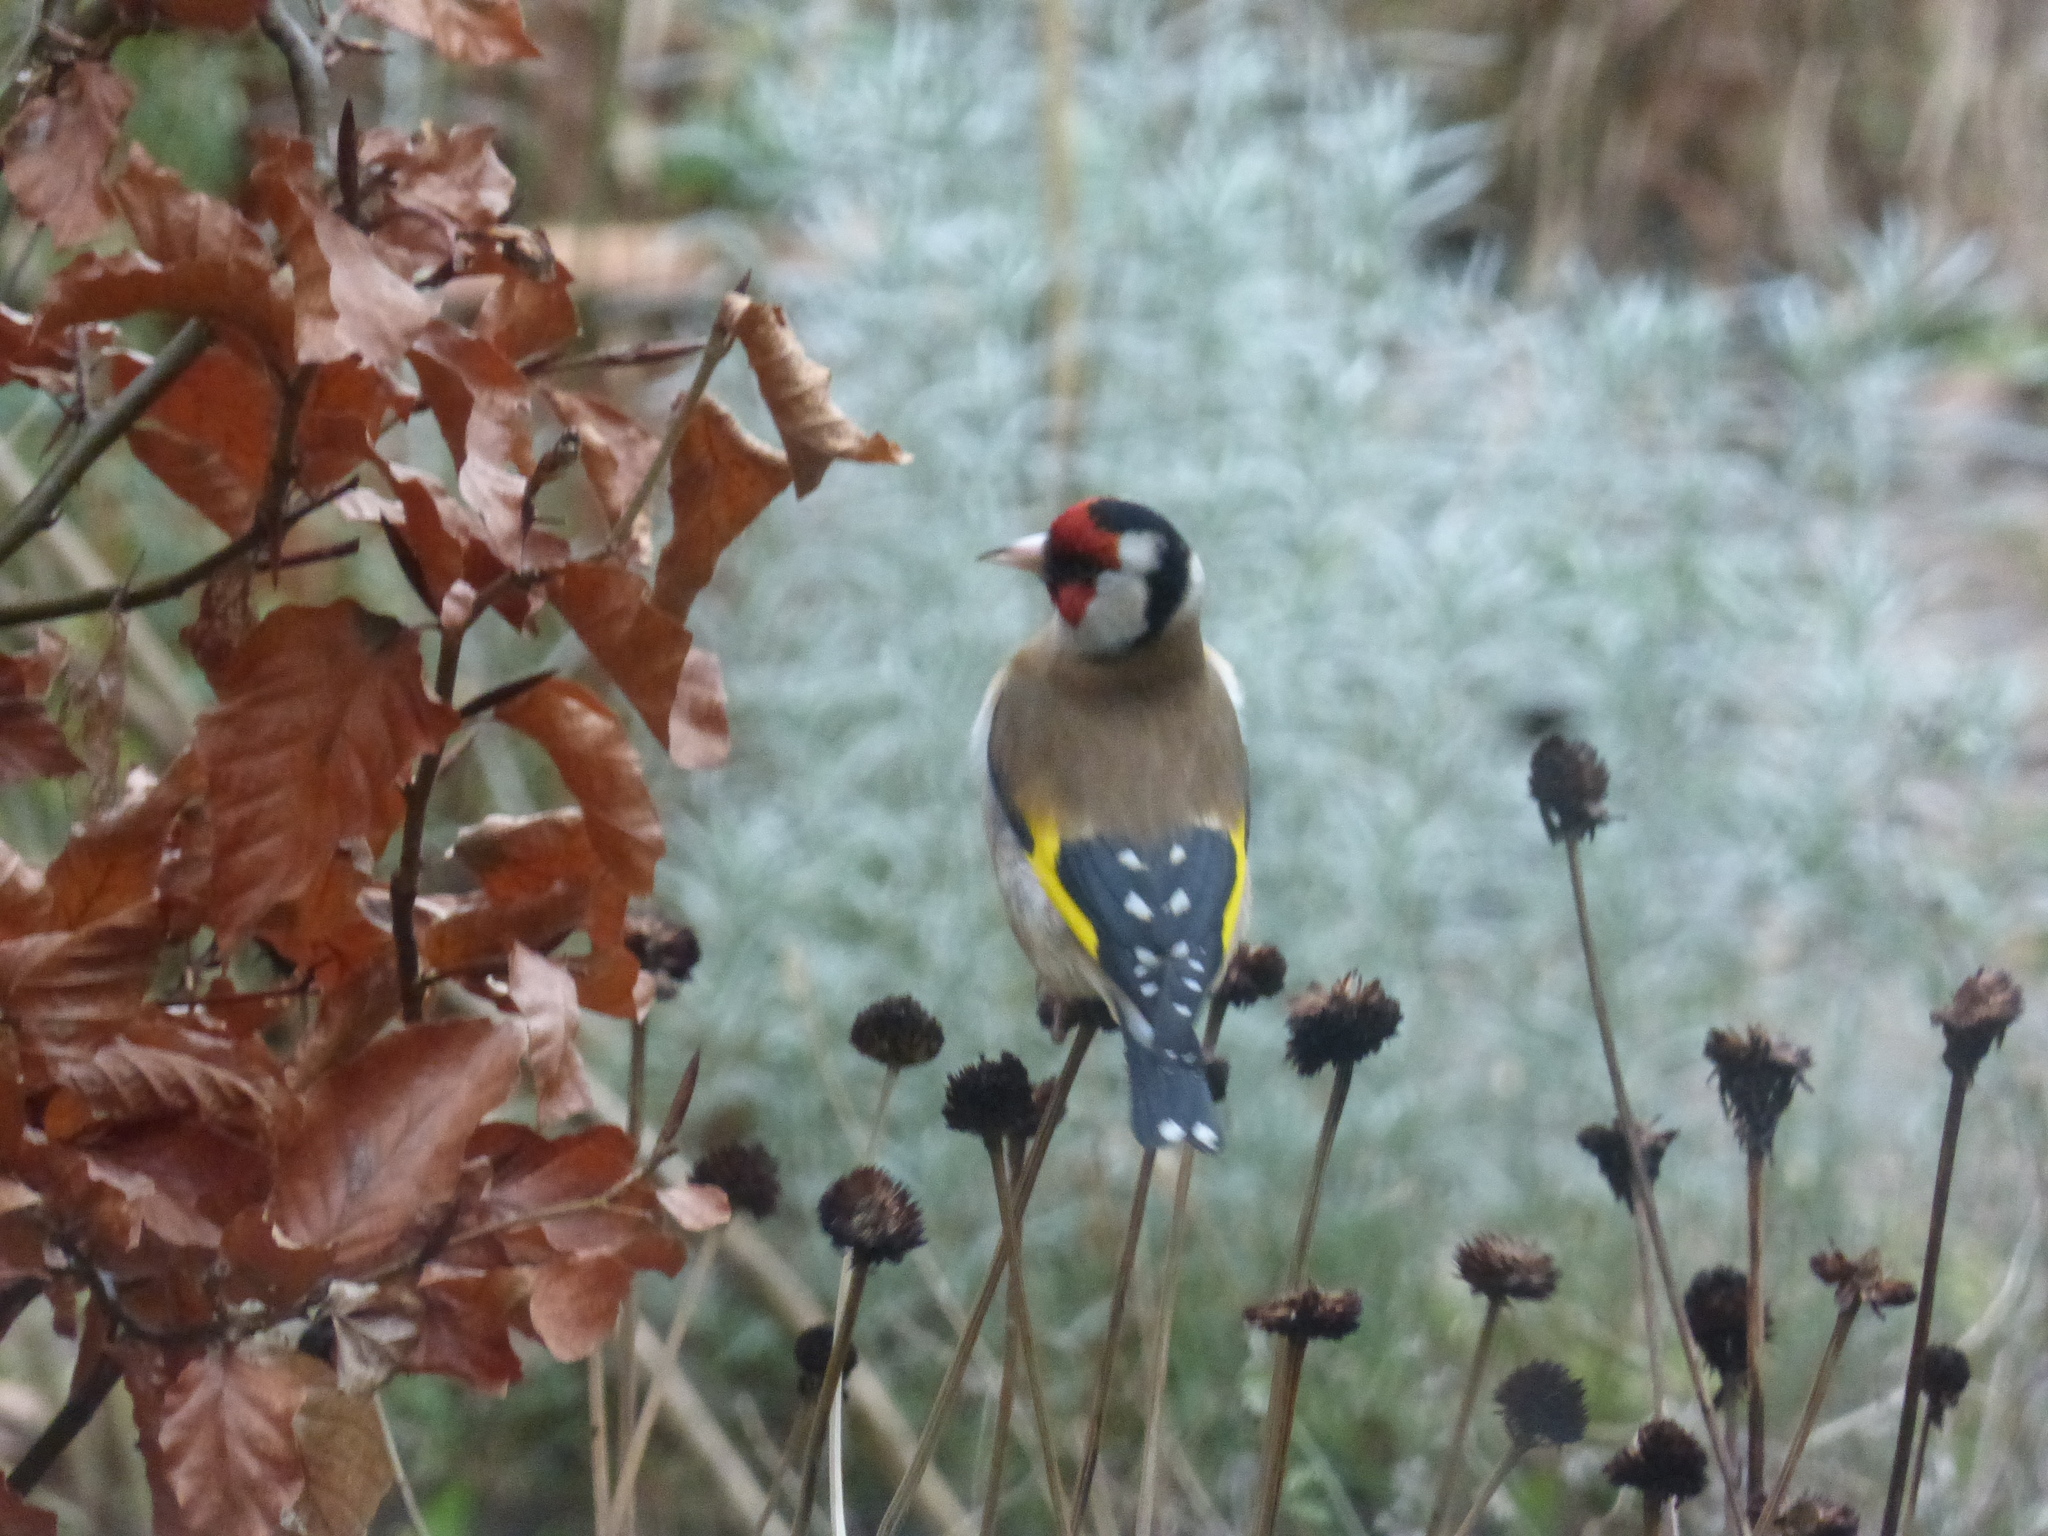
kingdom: Animalia
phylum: Chordata
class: Aves
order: Passeriformes
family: Fringillidae
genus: Carduelis
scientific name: Carduelis carduelis
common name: European goldfinch
